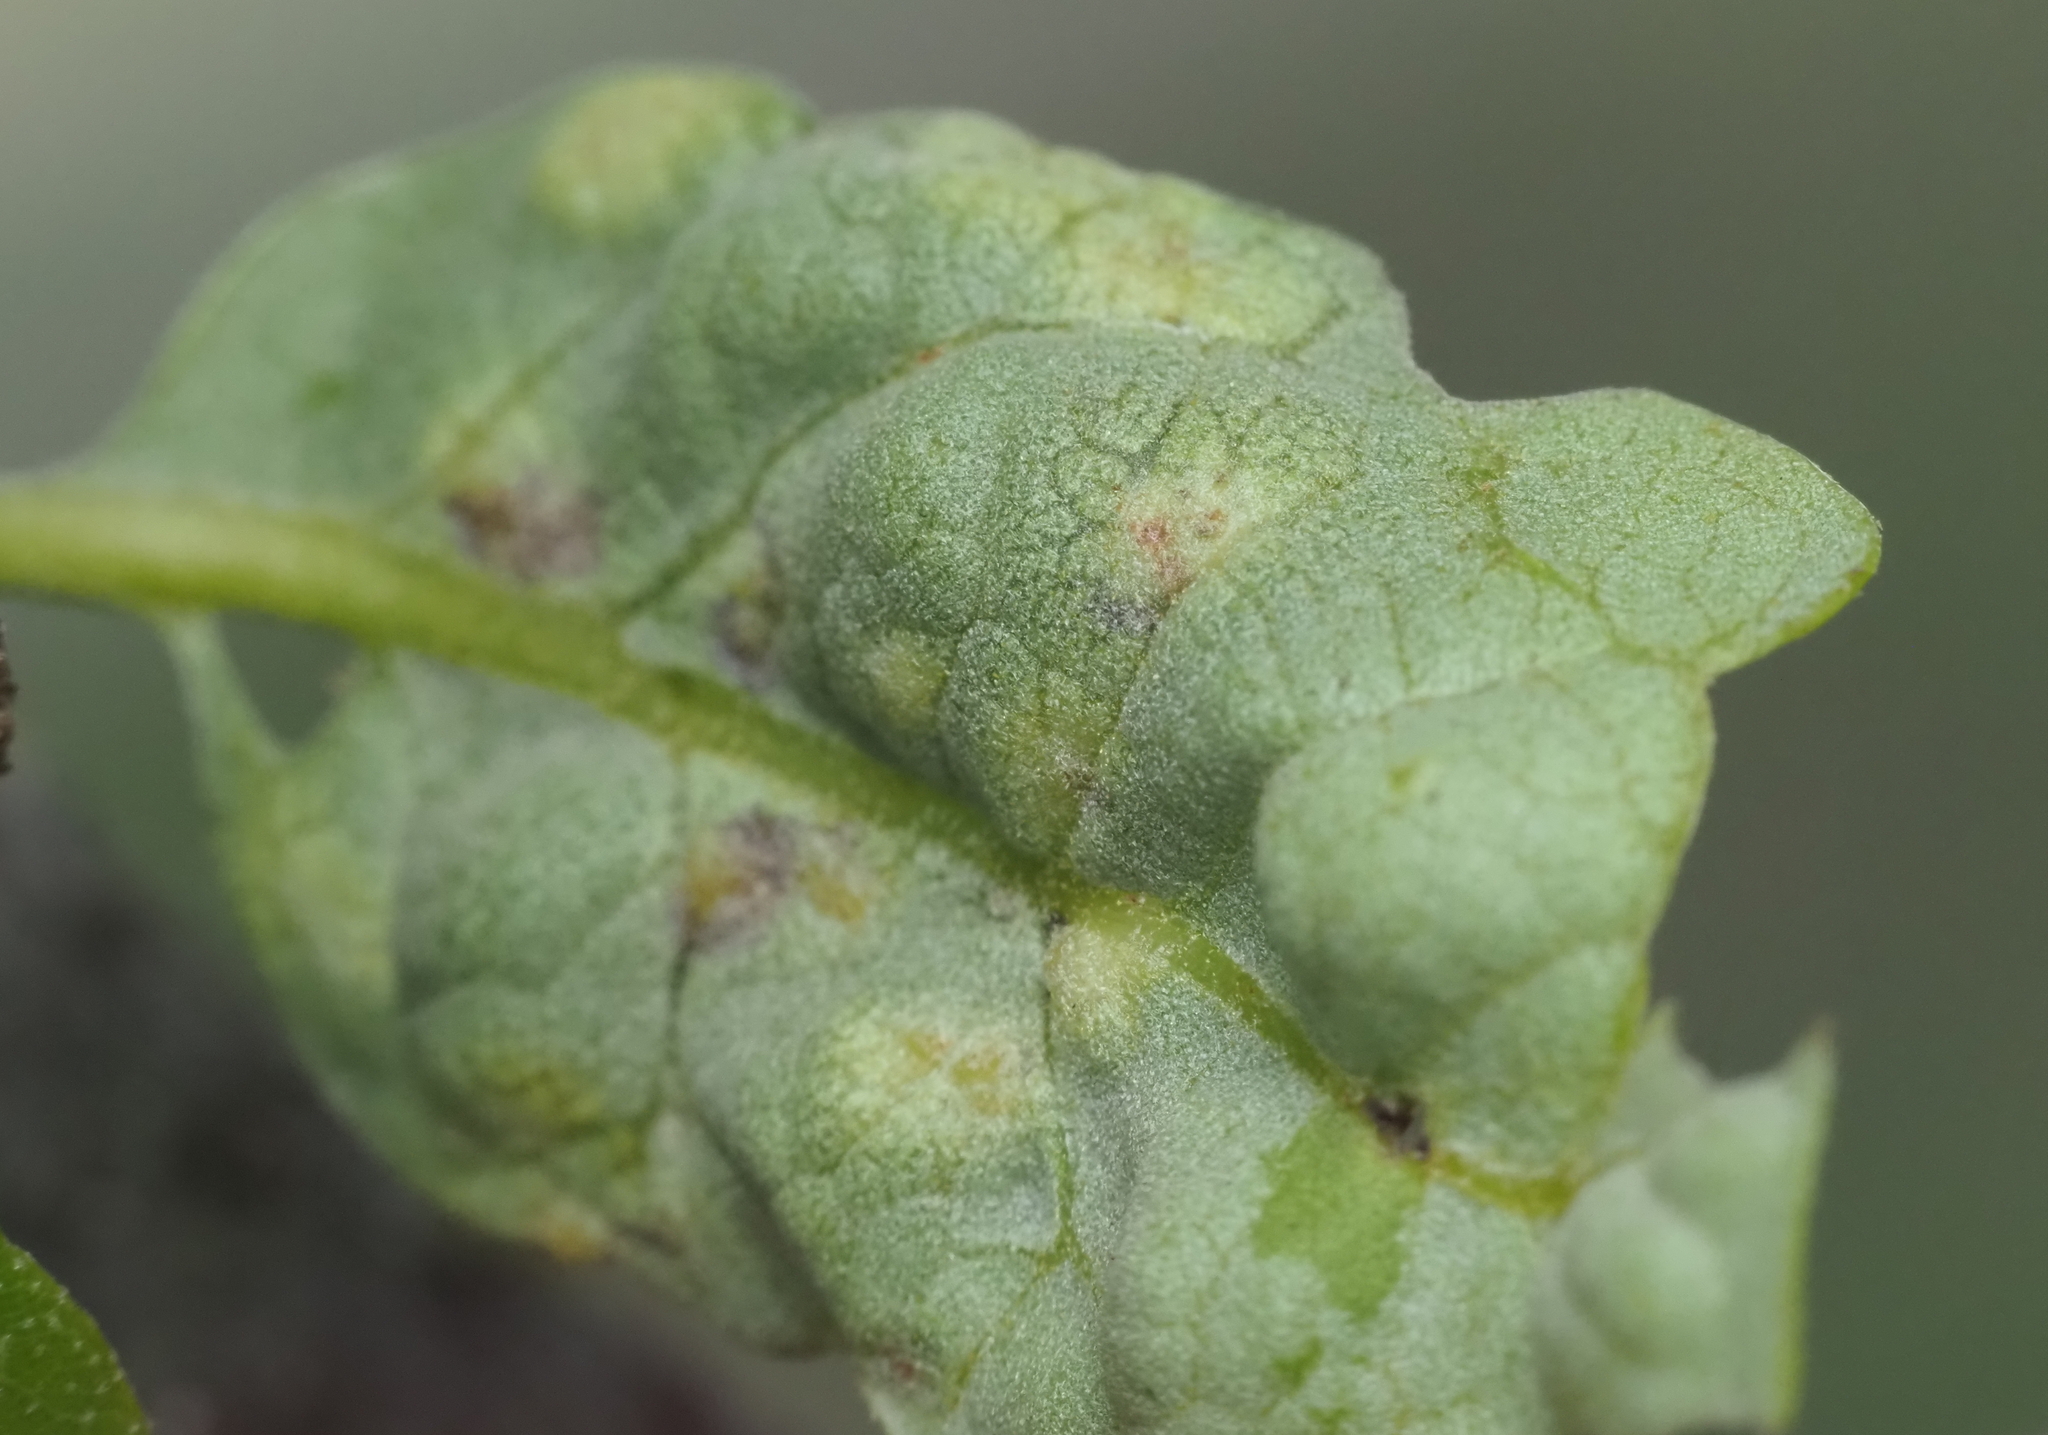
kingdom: Animalia
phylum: Arthropoda
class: Insecta
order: Hymenoptera
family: Cynipidae
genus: Neuroterus
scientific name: Neuroterus bussae
